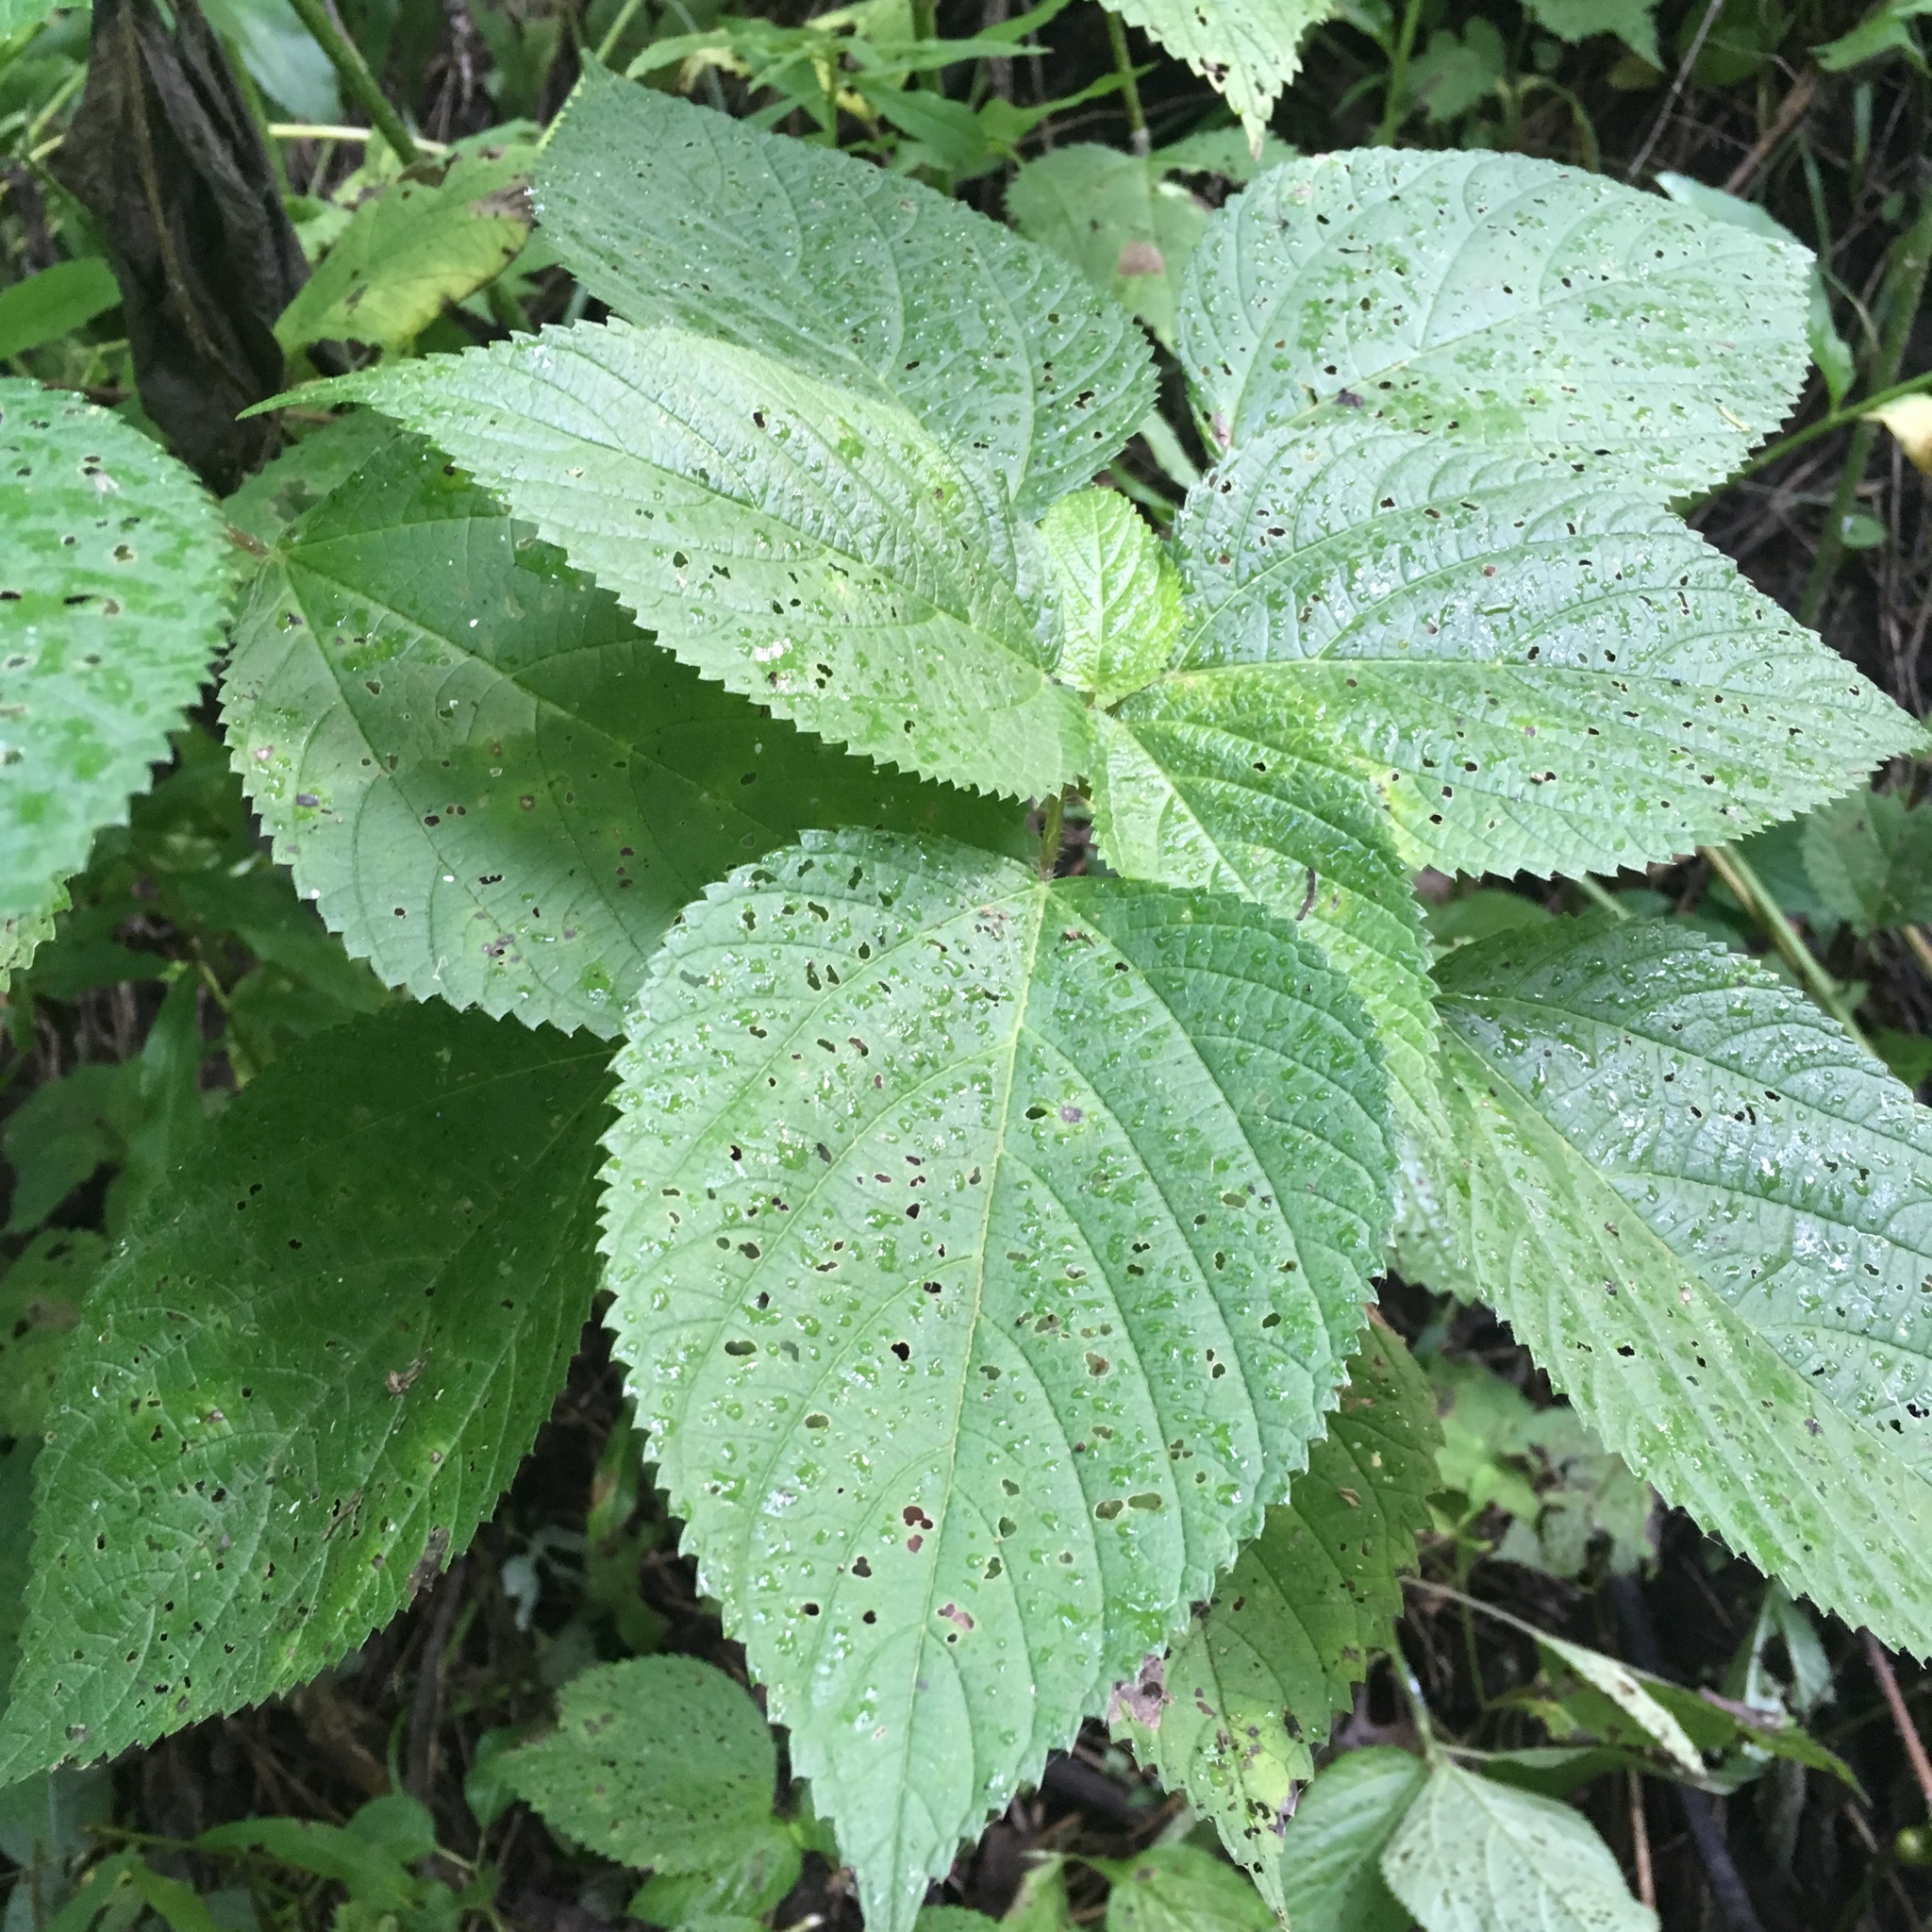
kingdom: Plantae
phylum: Tracheophyta
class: Magnoliopsida
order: Rosales
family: Urticaceae
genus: Laportea
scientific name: Laportea canadensis
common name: Canada nettle
